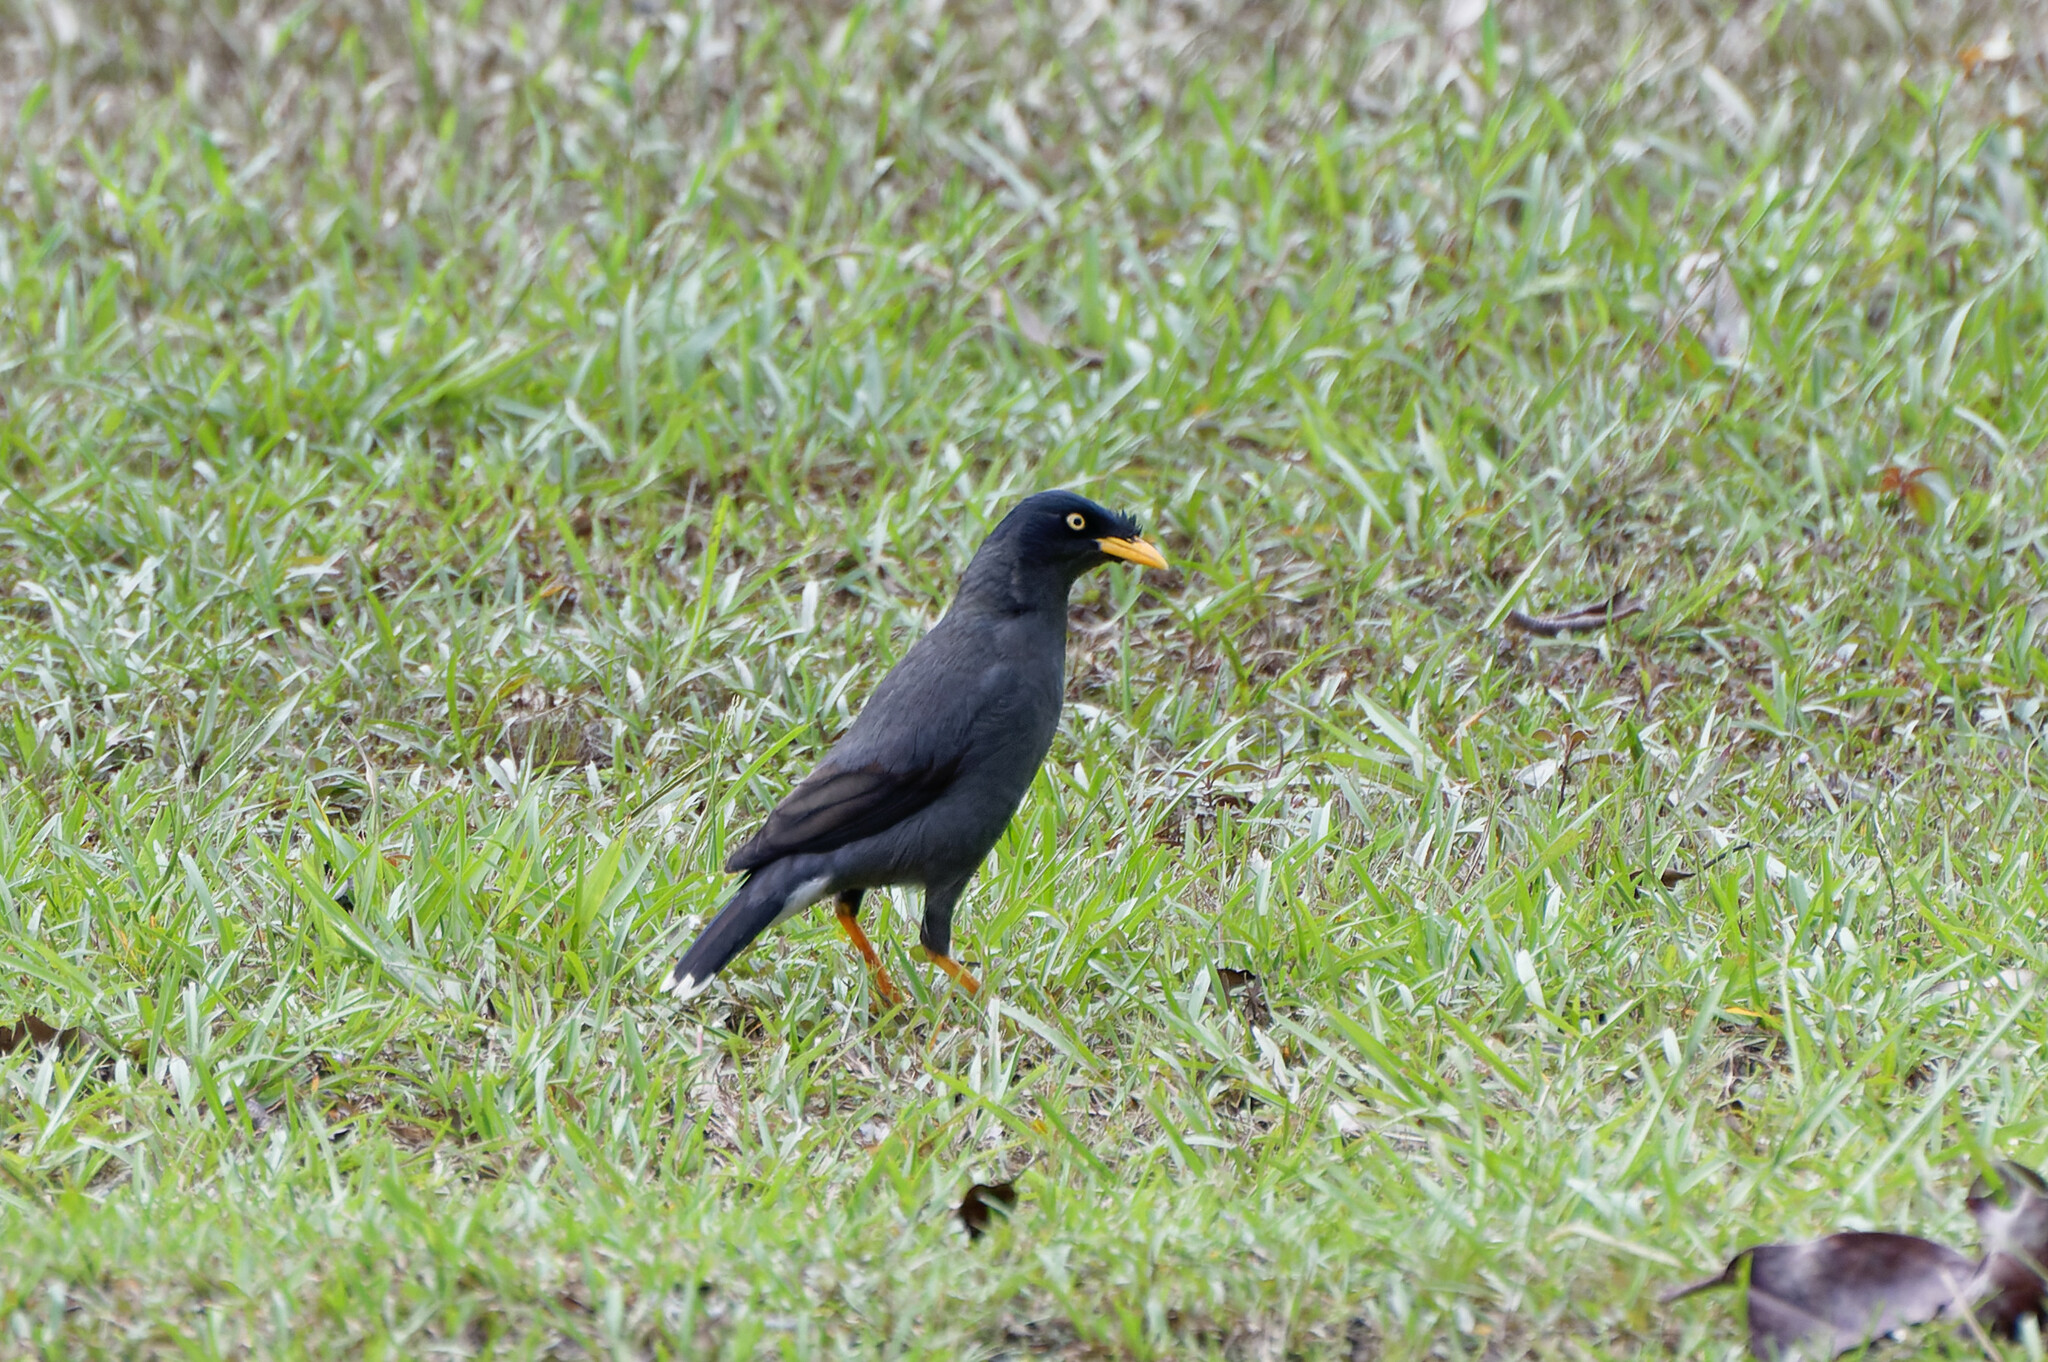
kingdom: Animalia
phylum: Chordata
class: Aves
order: Passeriformes
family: Sturnidae
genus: Acridotheres
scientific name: Acridotheres javanicus
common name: Javan myna
